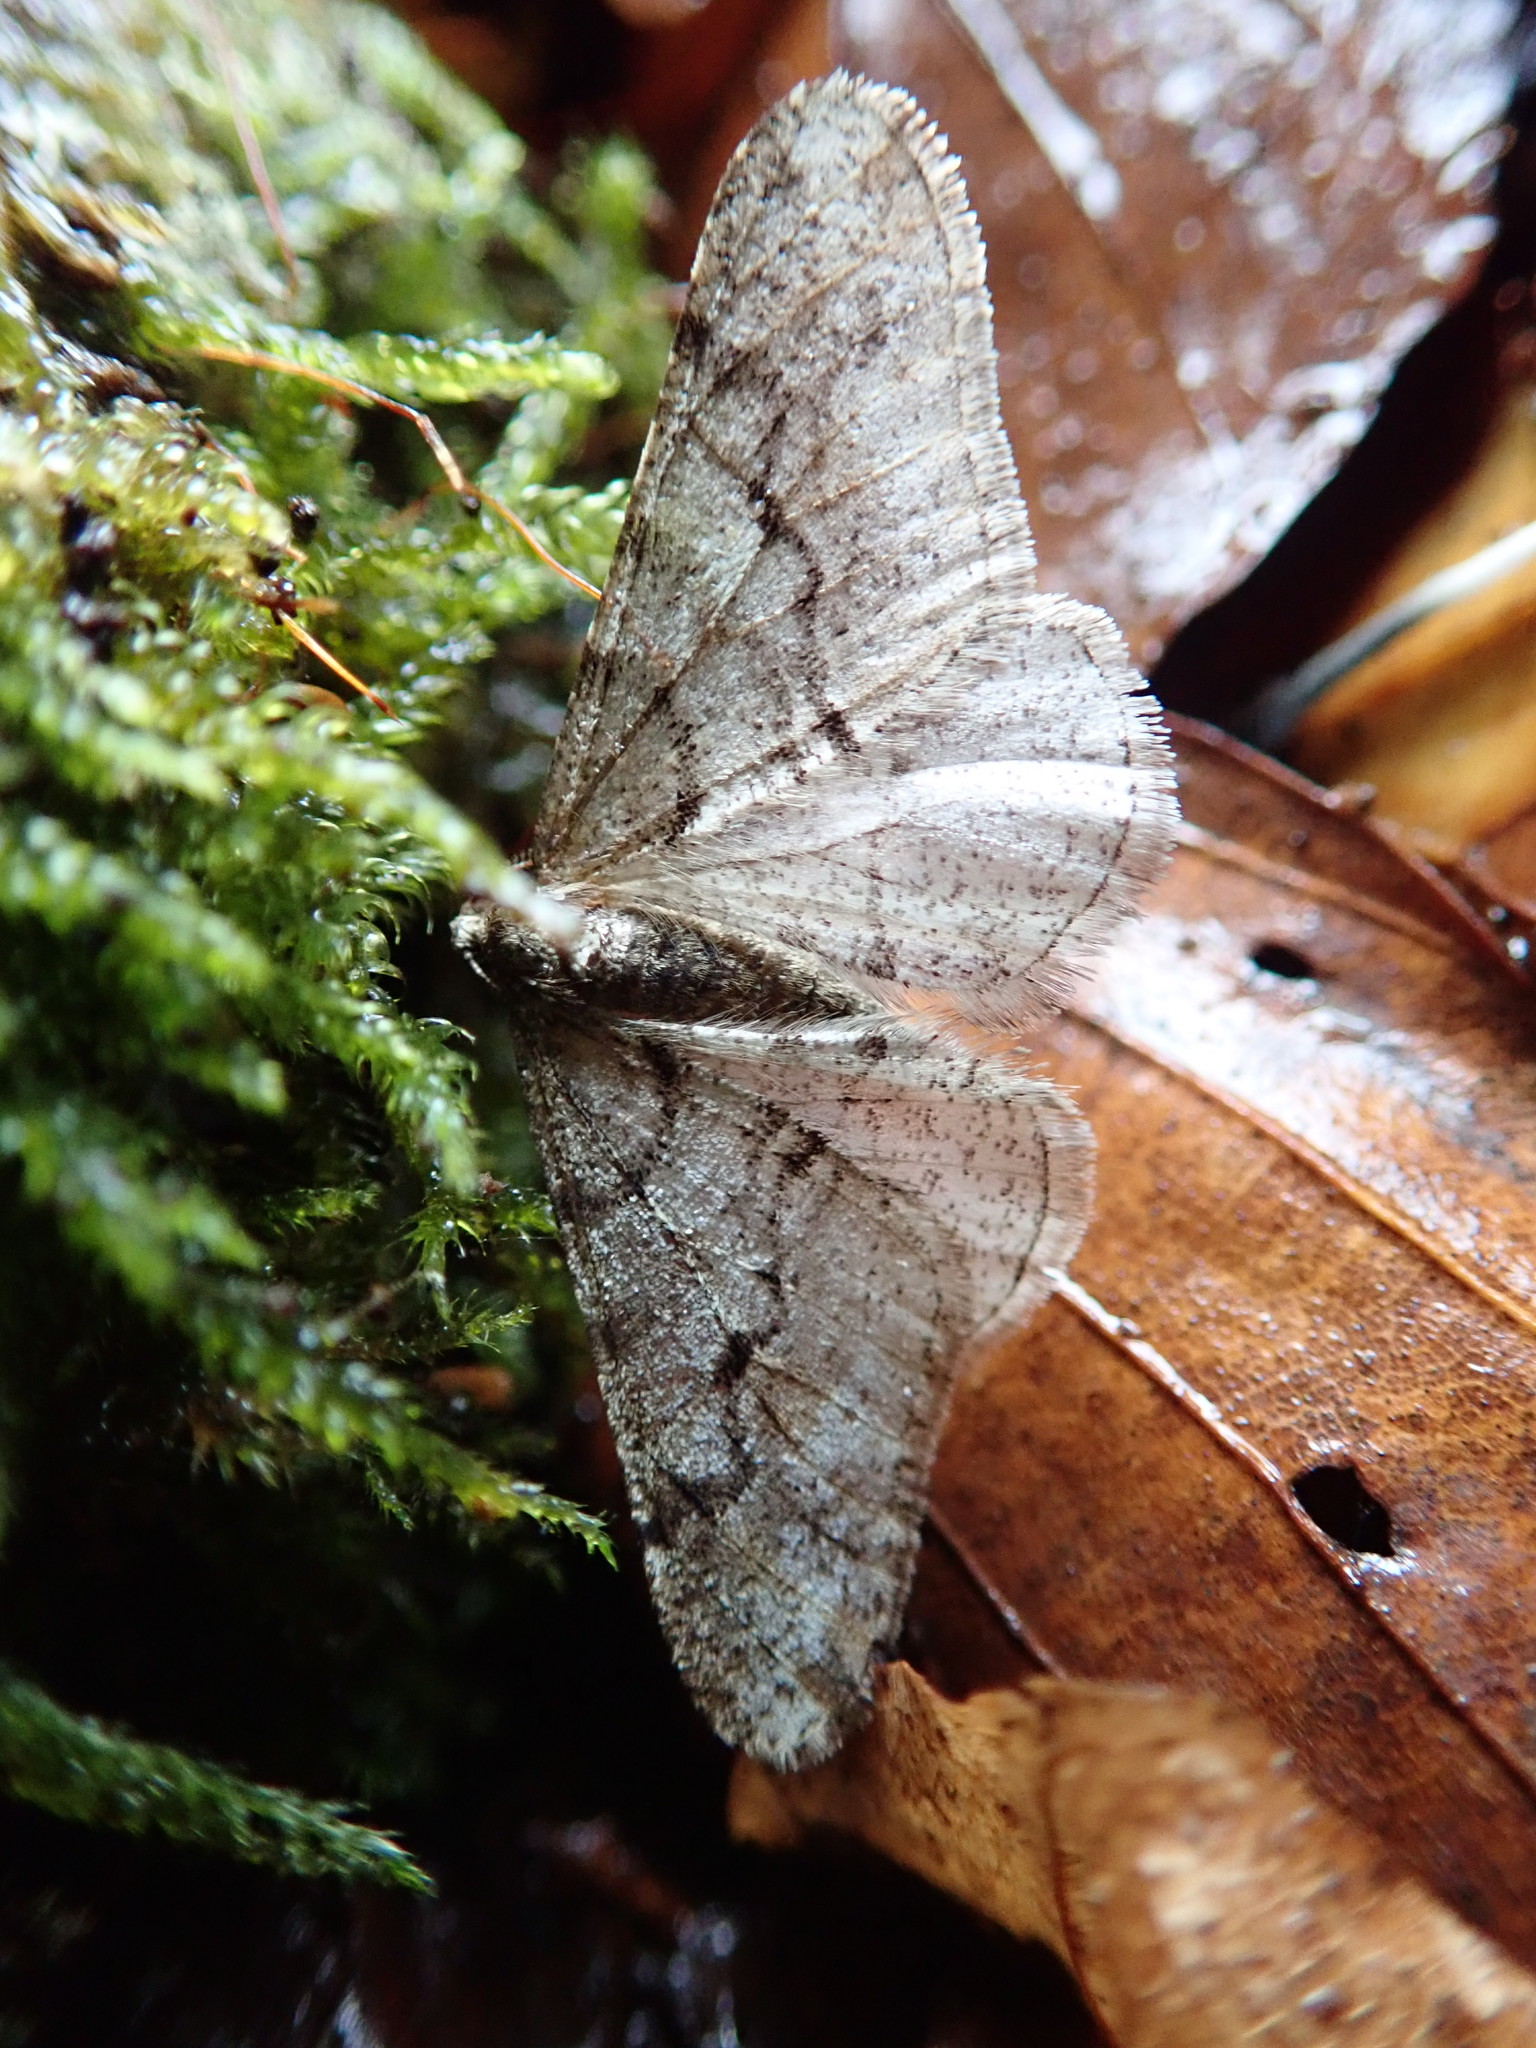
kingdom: Animalia
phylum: Arthropoda
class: Insecta
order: Lepidoptera
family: Geometridae
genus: Agriopis
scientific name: Agriopis leucophaearia
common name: Spring usher
